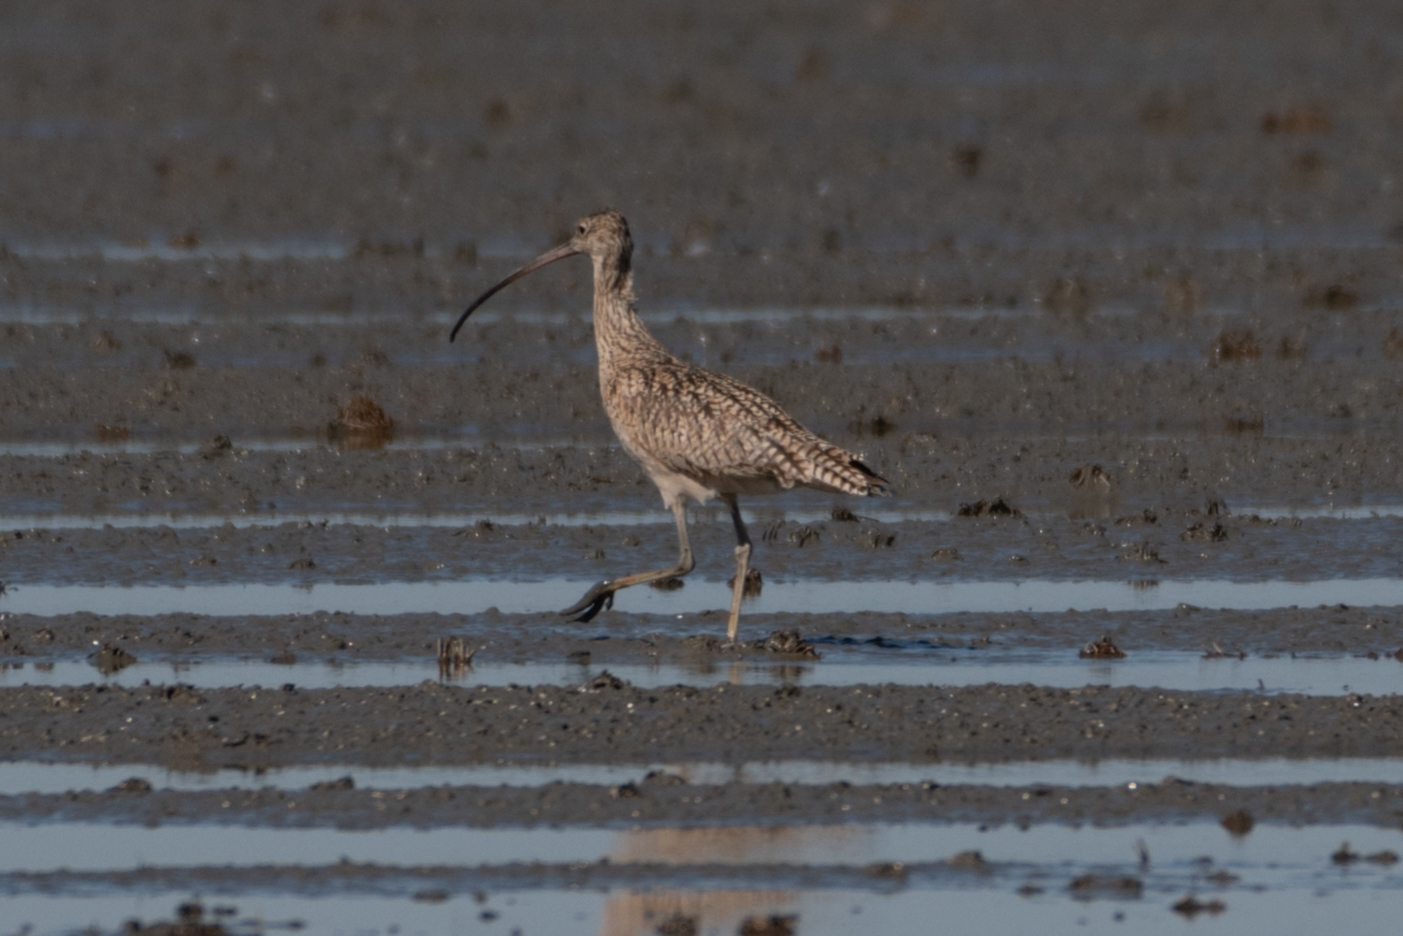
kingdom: Animalia
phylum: Chordata
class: Aves
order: Charadriiformes
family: Scolopacidae
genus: Numenius
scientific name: Numenius americanus
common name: Long-billed curlew
